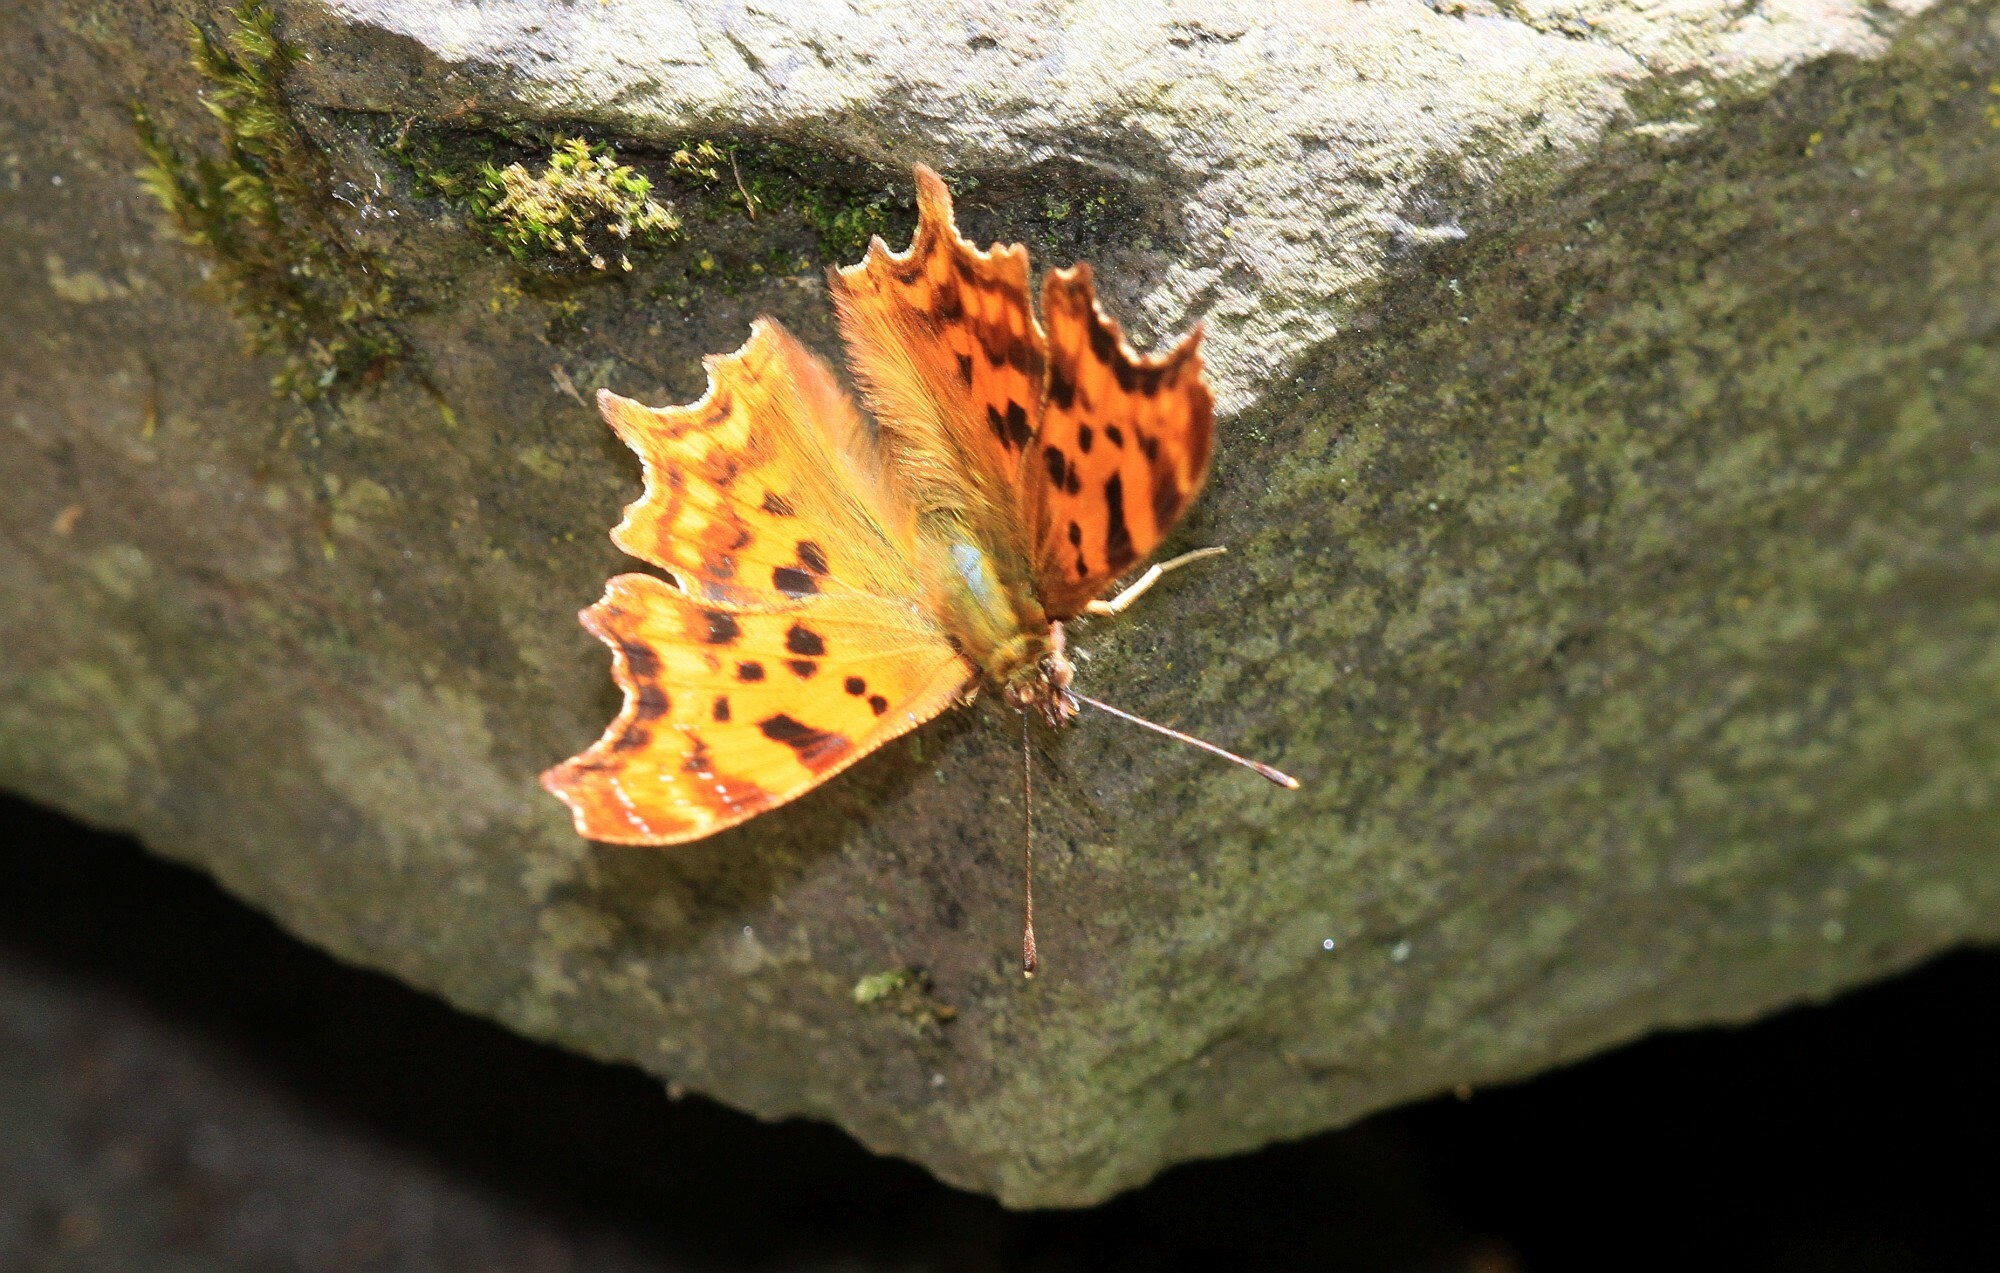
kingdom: Animalia
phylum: Arthropoda
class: Insecta
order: Lepidoptera
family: Nymphalidae
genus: Polygonia
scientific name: Polygonia c-album
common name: Comma
